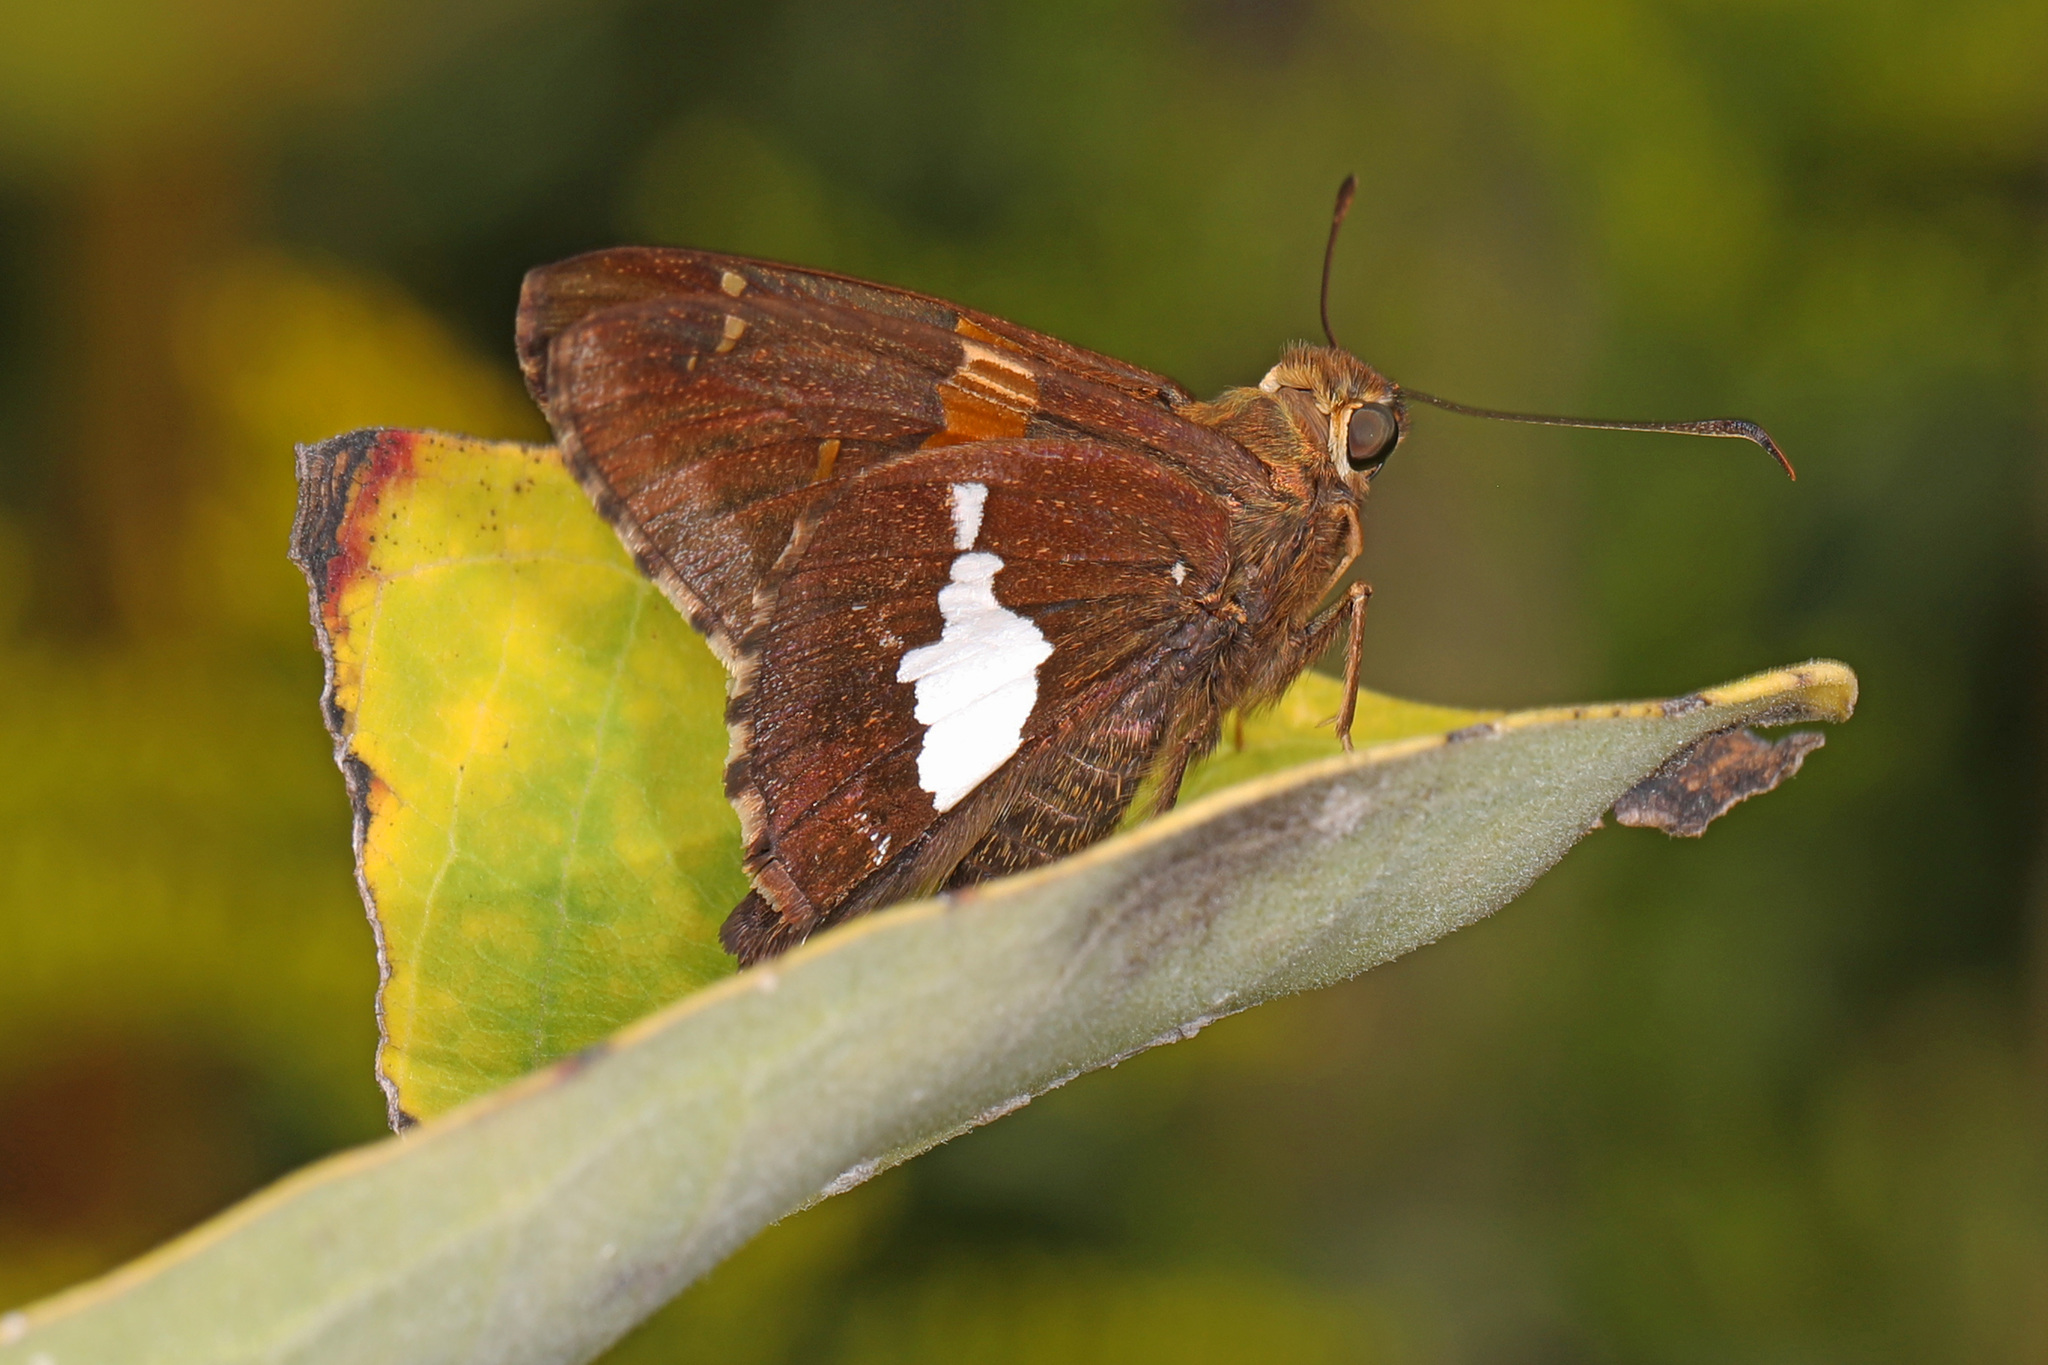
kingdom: Animalia
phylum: Arthropoda
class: Insecta
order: Lepidoptera
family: Hesperiidae
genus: Epargyreus
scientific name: Epargyreus clarus
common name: Silver-spotted skipper
